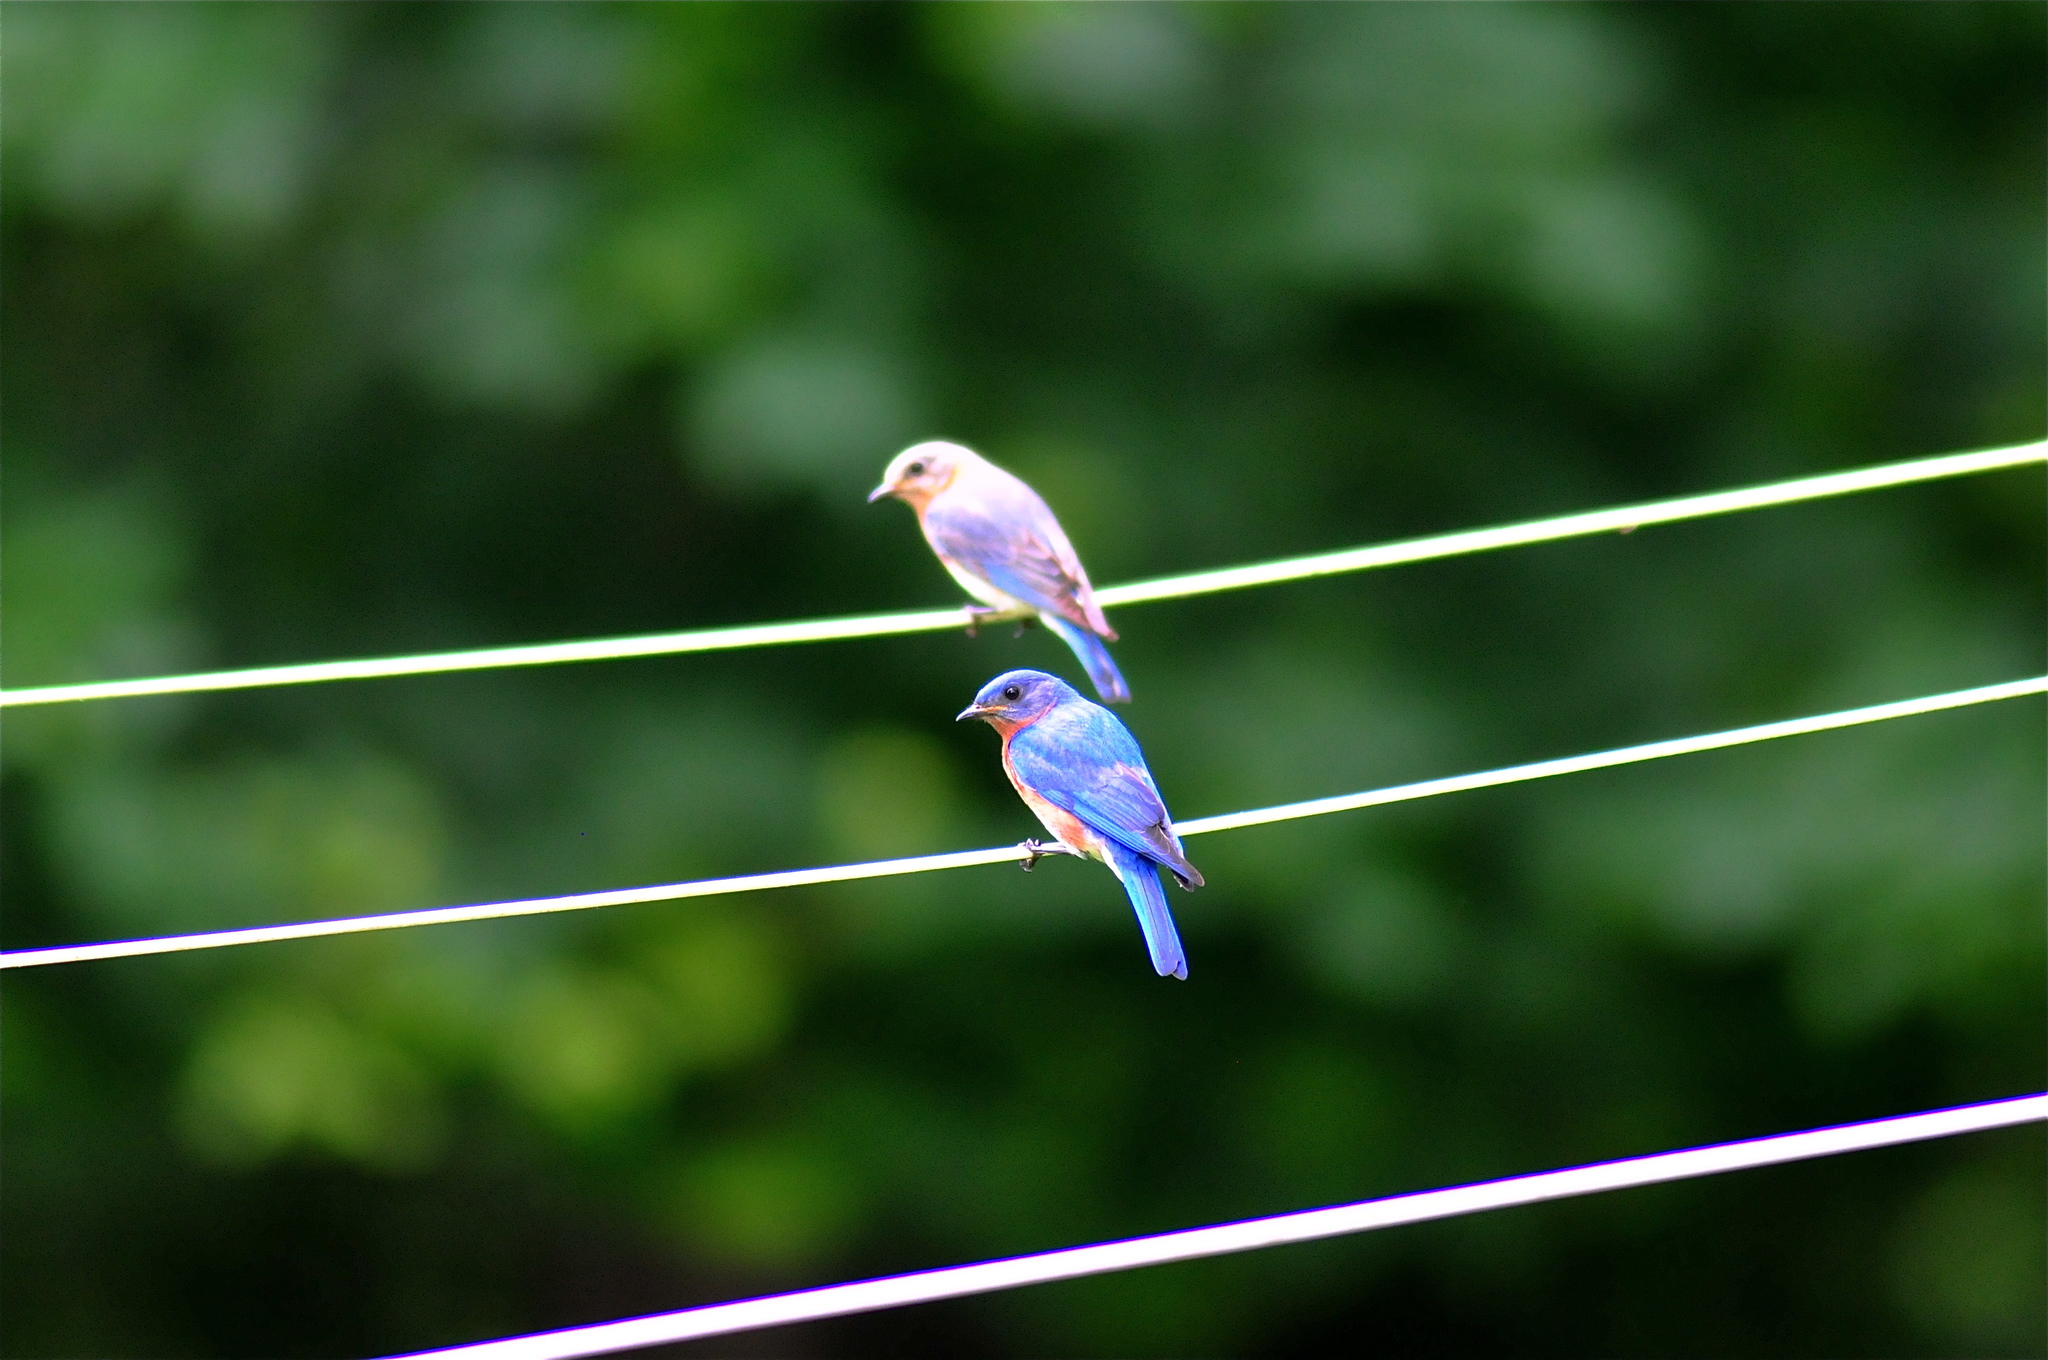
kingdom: Animalia
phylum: Chordata
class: Aves
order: Passeriformes
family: Turdidae
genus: Sialia
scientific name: Sialia sialis
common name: Eastern bluebird
